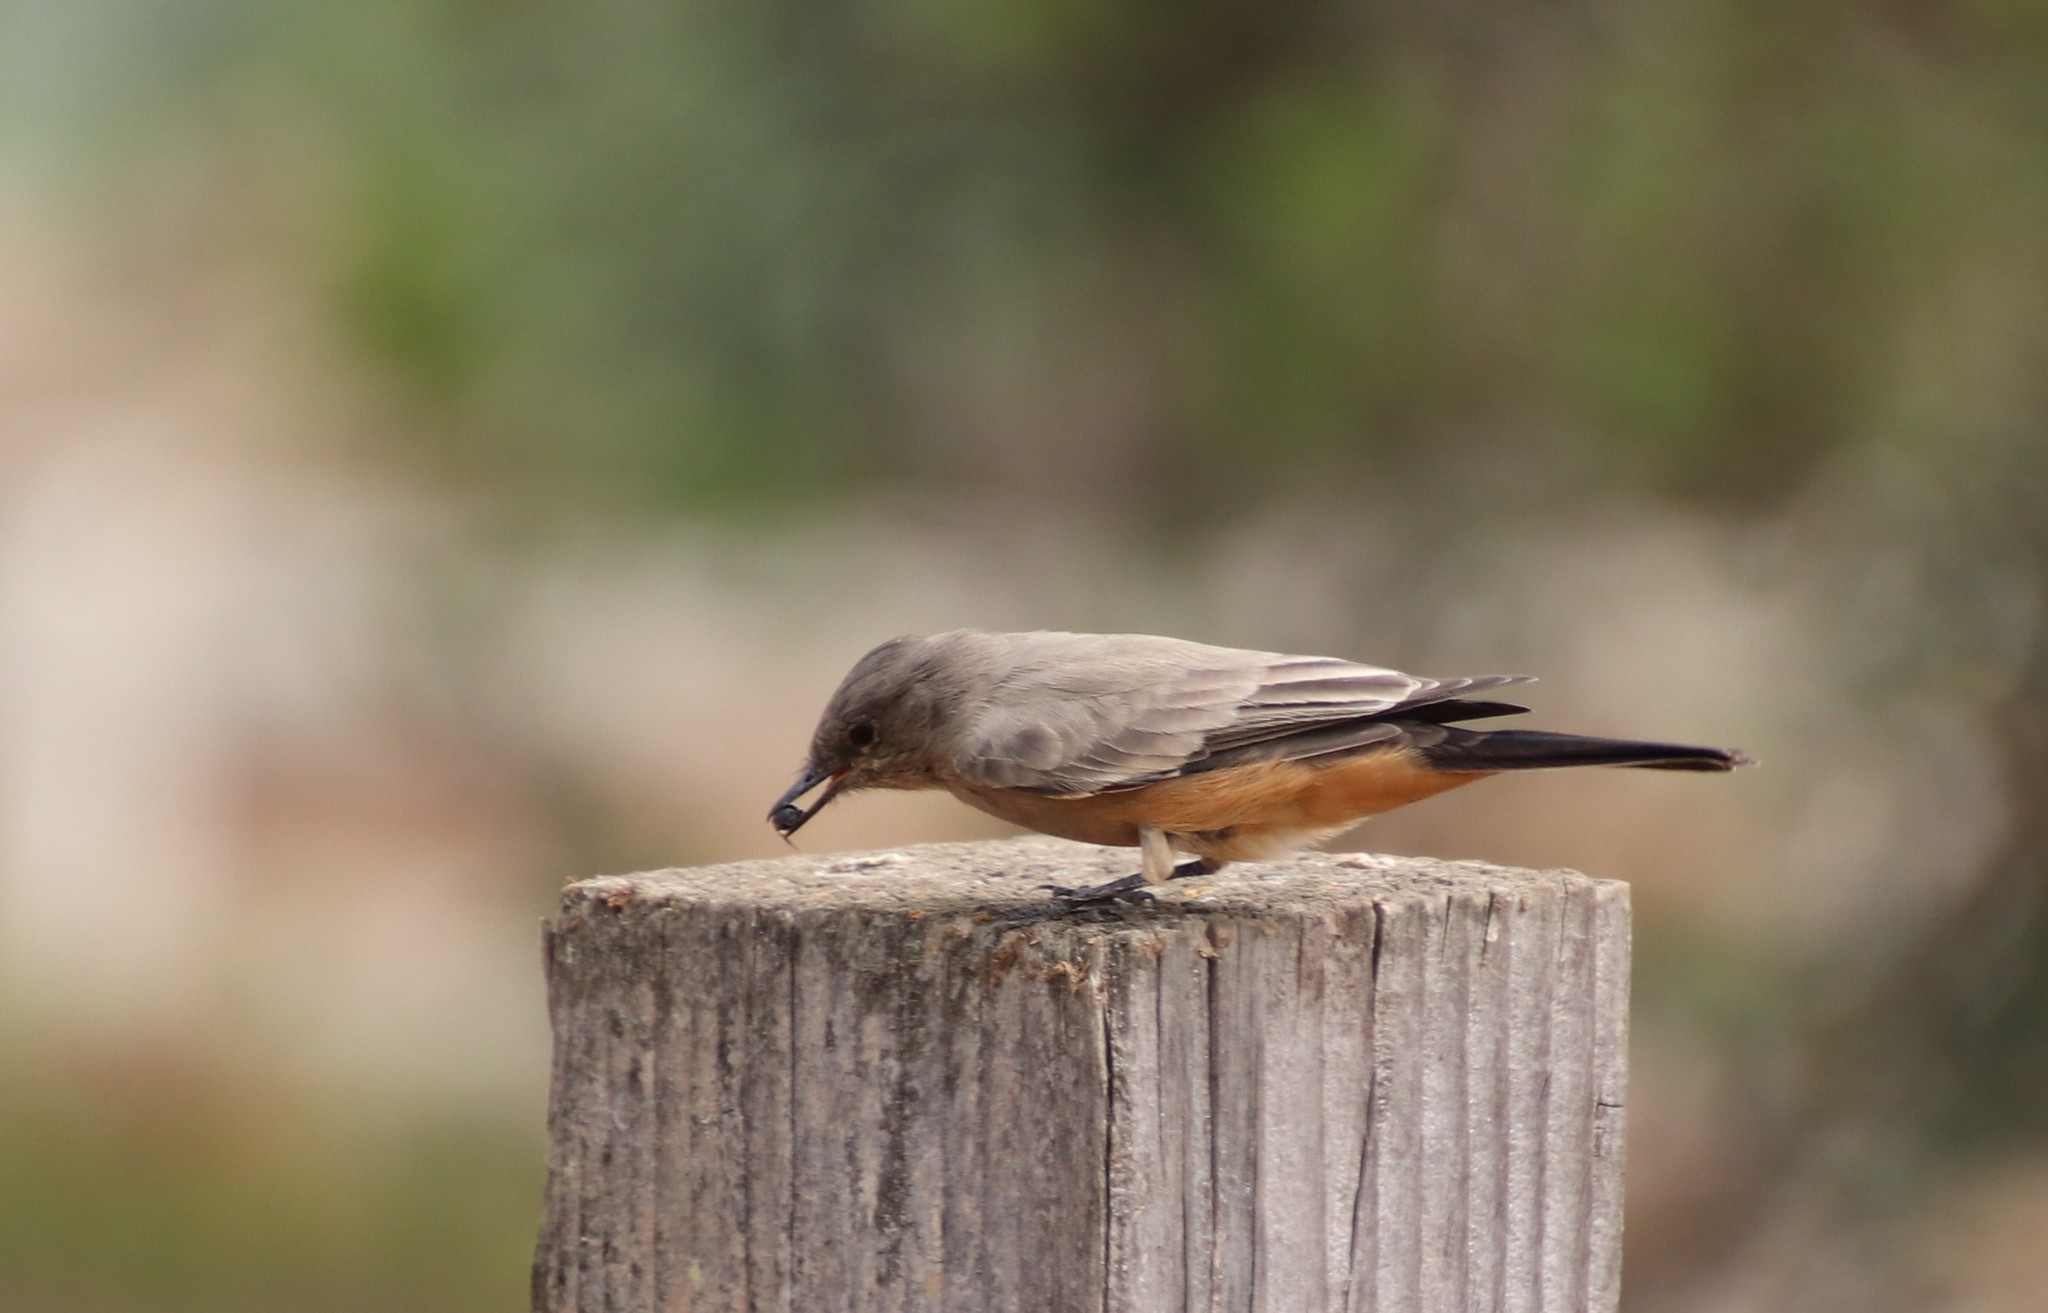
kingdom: Animalia
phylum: Chordata
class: Aves
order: Passeriformes
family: Tyrannidae
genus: Sayornis
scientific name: Sayornis saya
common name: Say's phoebe
